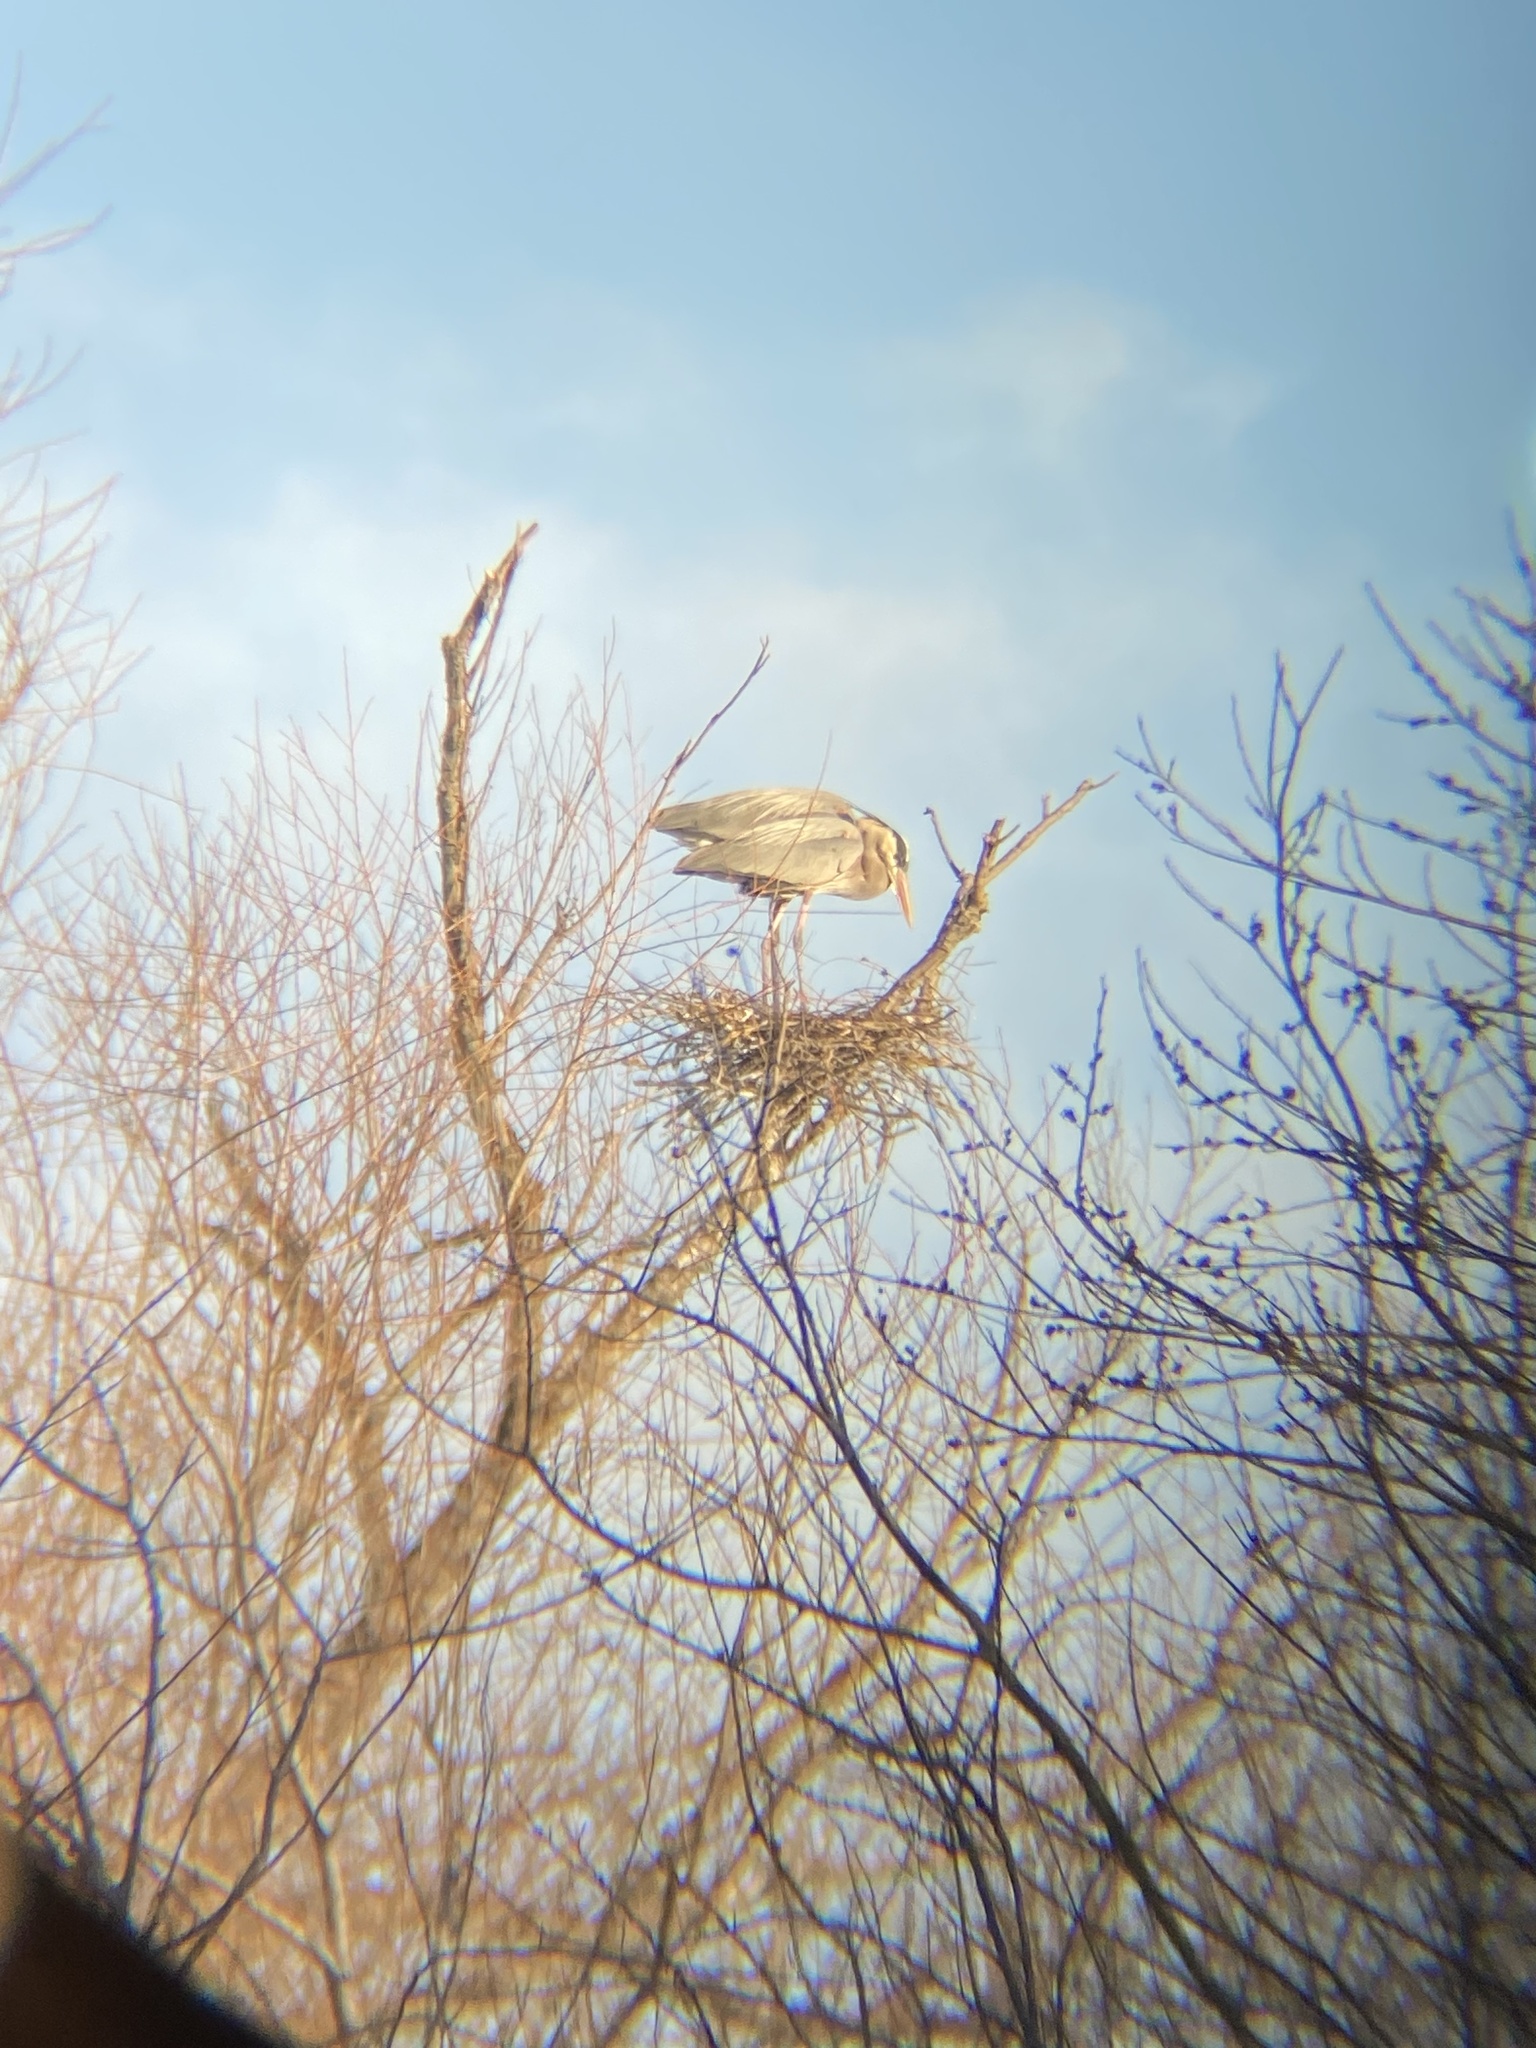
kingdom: Animalia
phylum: Chordata
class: Aves
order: Pelecaniformes
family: Ardeidae
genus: Ardea
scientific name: Ardea herodias
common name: Great blue heron
